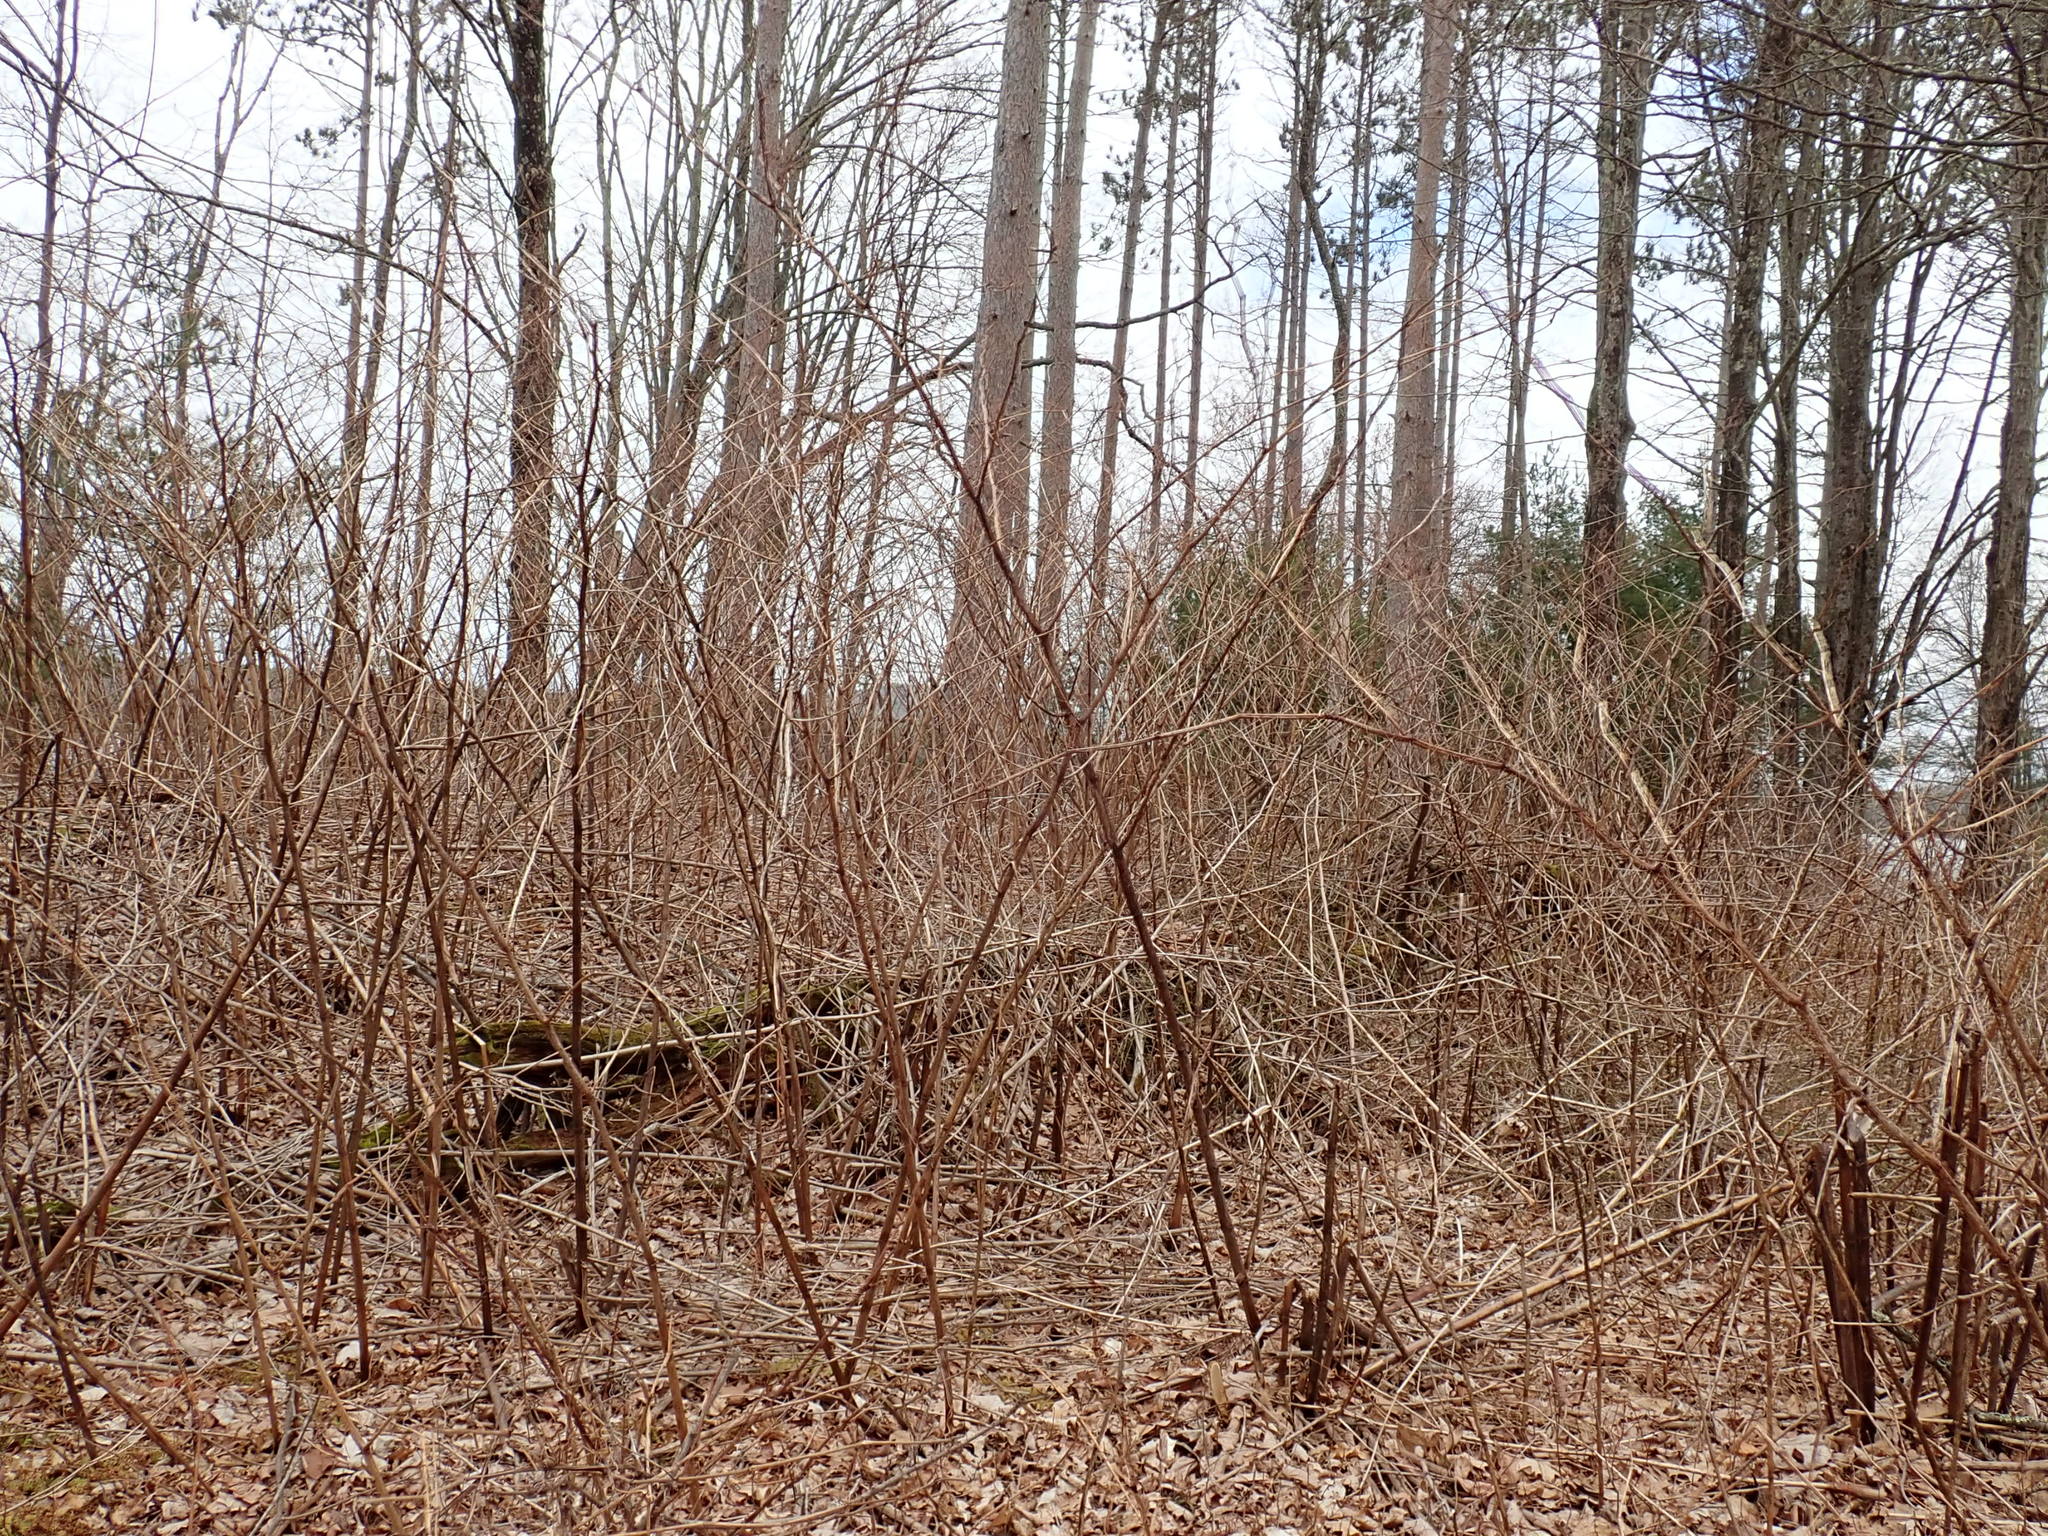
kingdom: Plantae
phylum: Tracheophyta
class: Magnoliopsida
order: Caryophyllales
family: Polygonaceae
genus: Reynoutria
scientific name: Reynoutria
